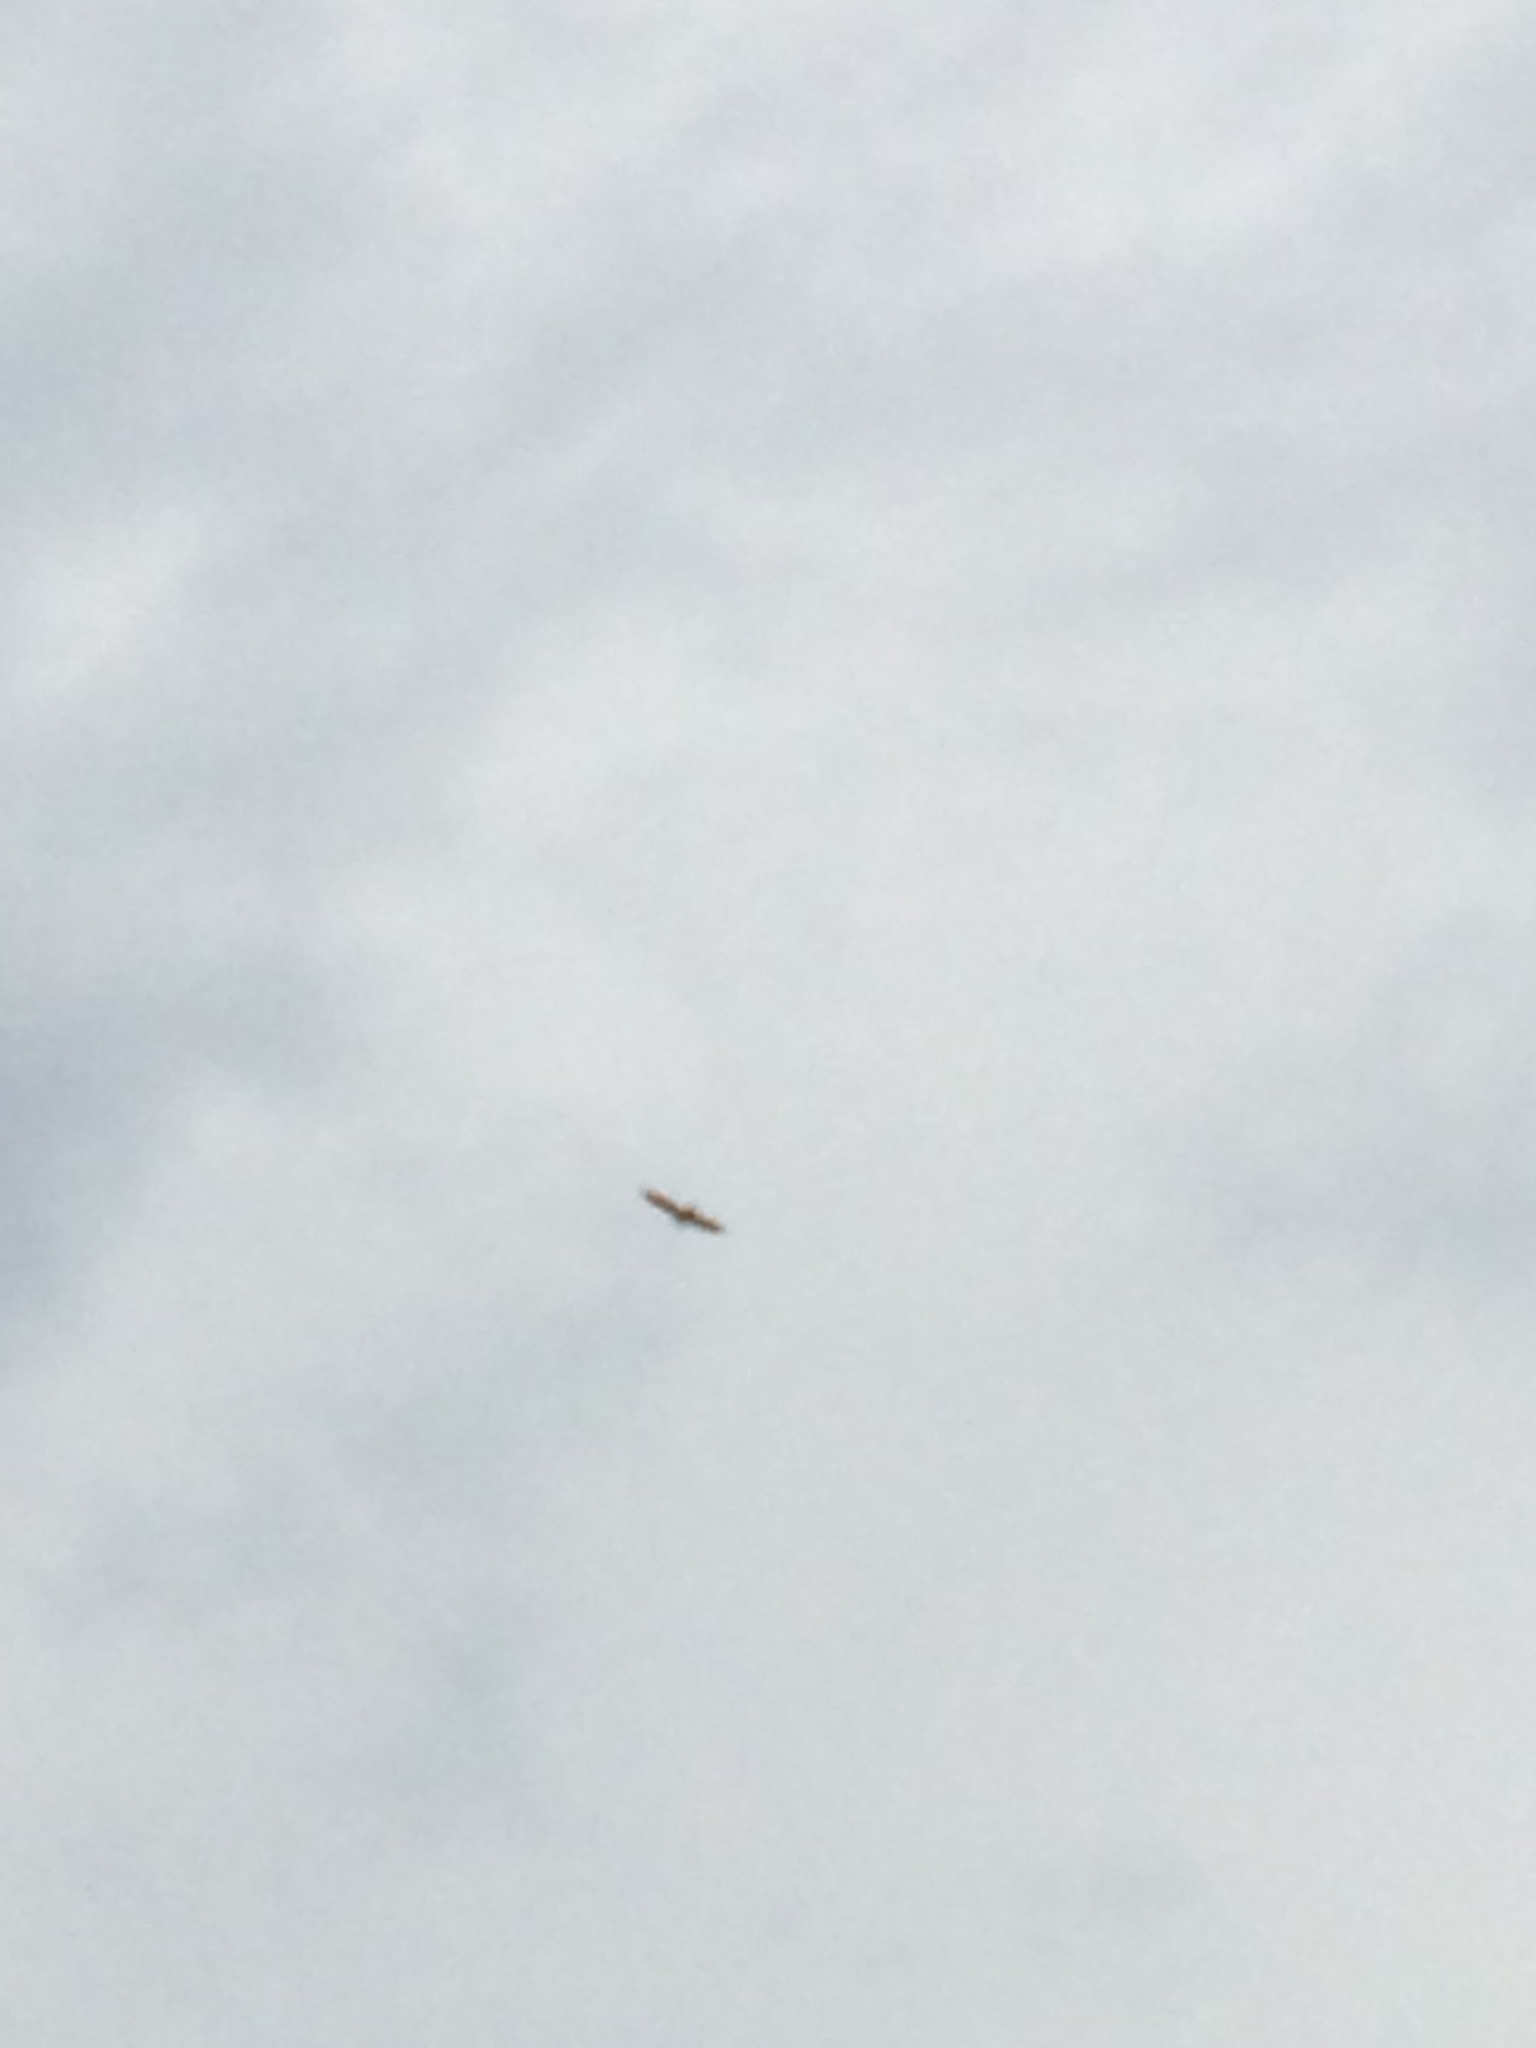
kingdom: Animalia
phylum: Chordata
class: Aves
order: Accipitriformes
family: Cathartidae
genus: Cathartes
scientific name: Cathartes aura
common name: Turkey vulture
